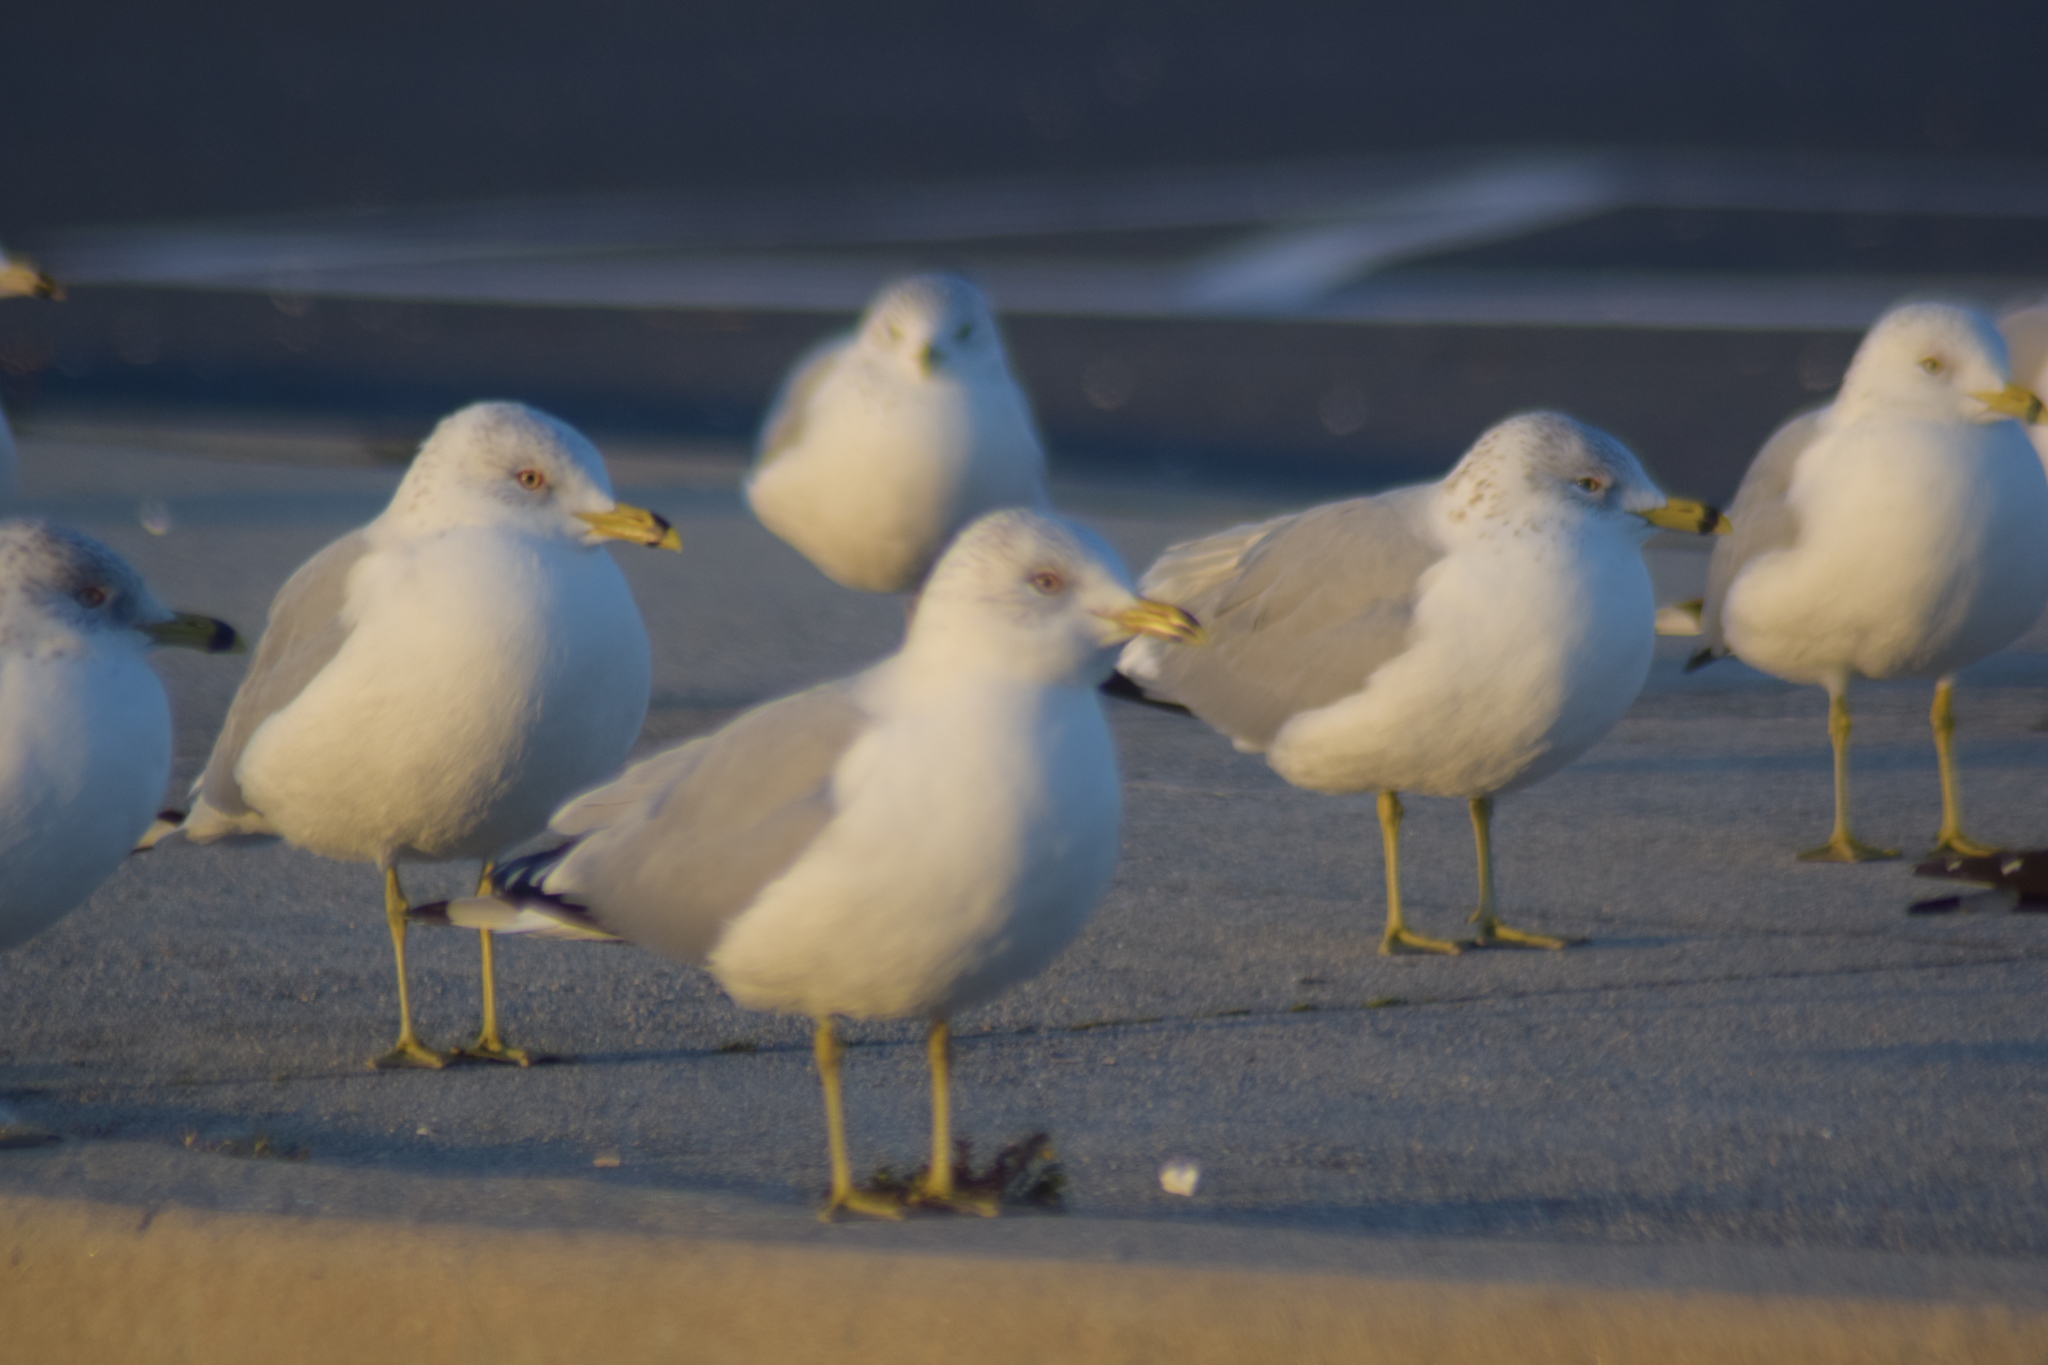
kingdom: Animalia
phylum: Chordata
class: Aves
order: Charadriiformes
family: Laridae
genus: Larus
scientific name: Larus delawarensis
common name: Ring-billed gull
